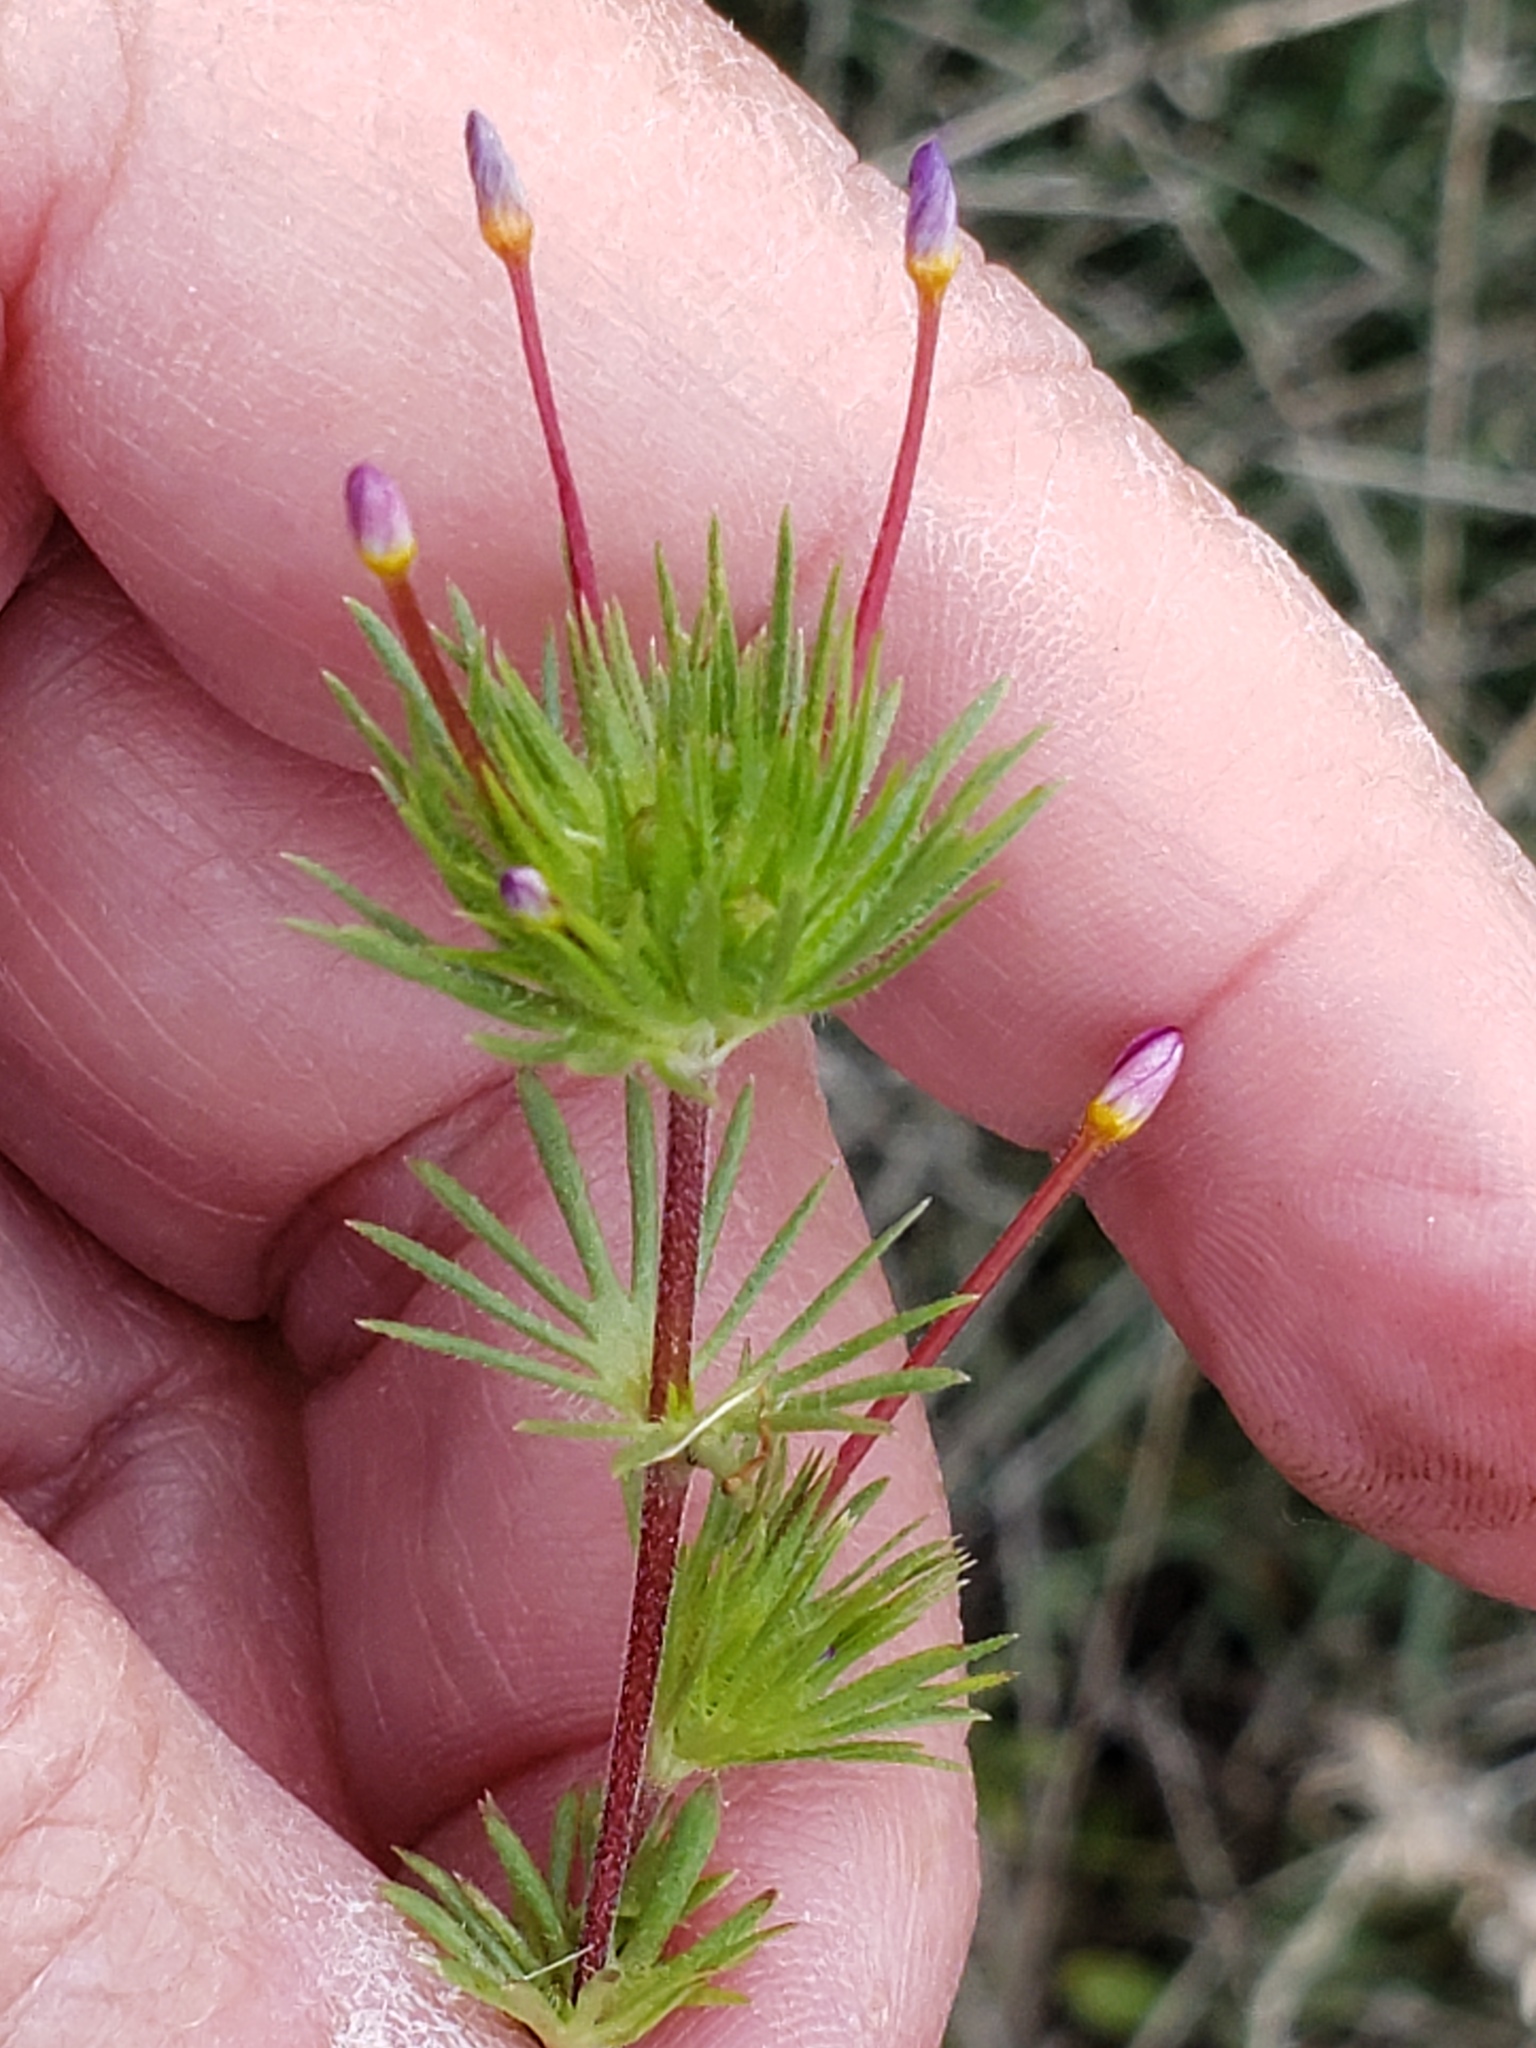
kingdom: Plantae
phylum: Tracheophyta
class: Magnoliopsida
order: Ericales
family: Polemoniaceae
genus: Leptosiphon
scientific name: Leptosiphon bicolor
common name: True babystars
